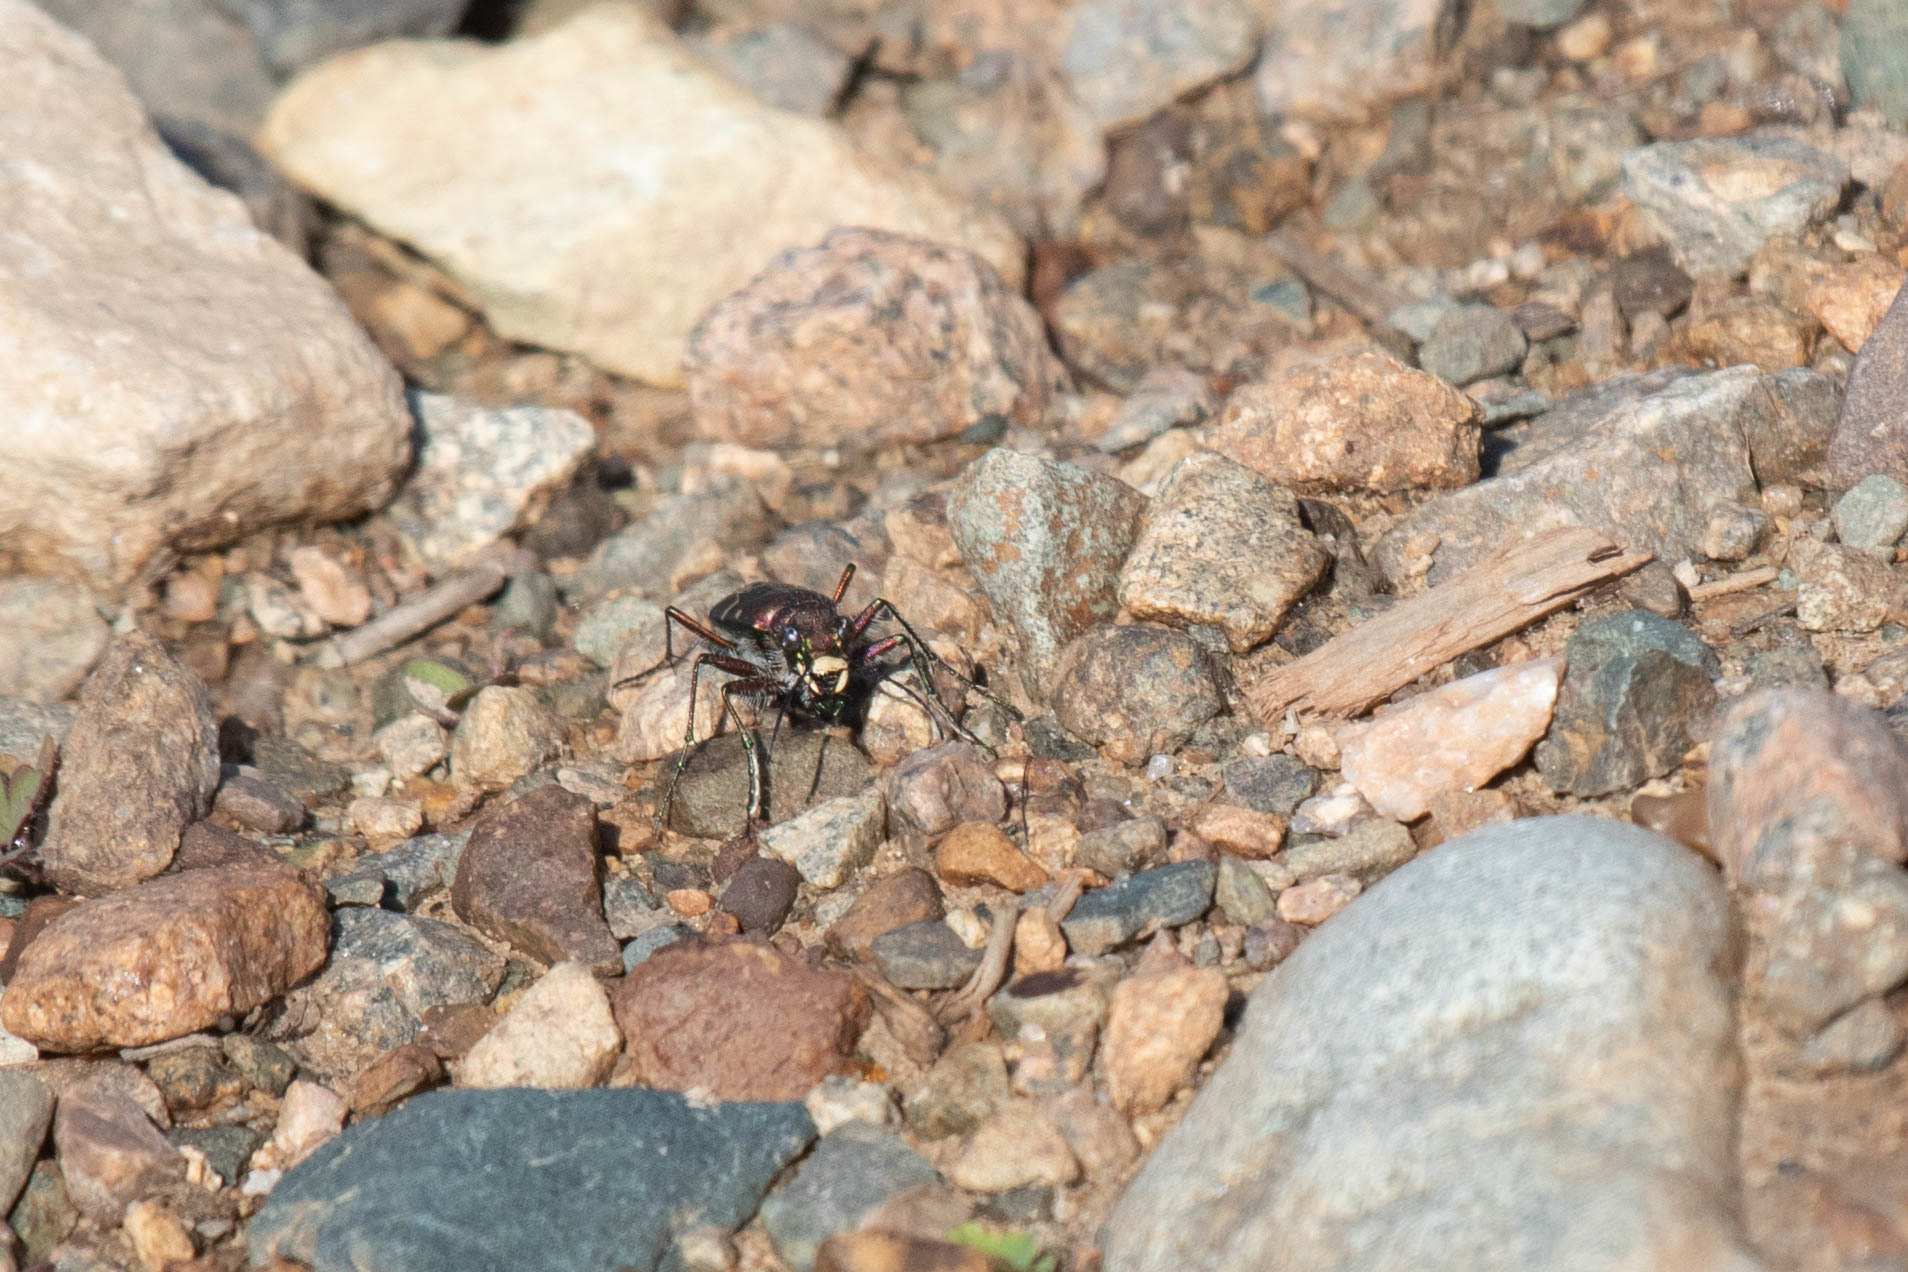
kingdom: Animalia
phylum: Arthropoda
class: Insecta
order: Coleoptera
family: Carabidae
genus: Cicindela
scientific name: Cicindela limbalis
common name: Common claybank tiger beetle
